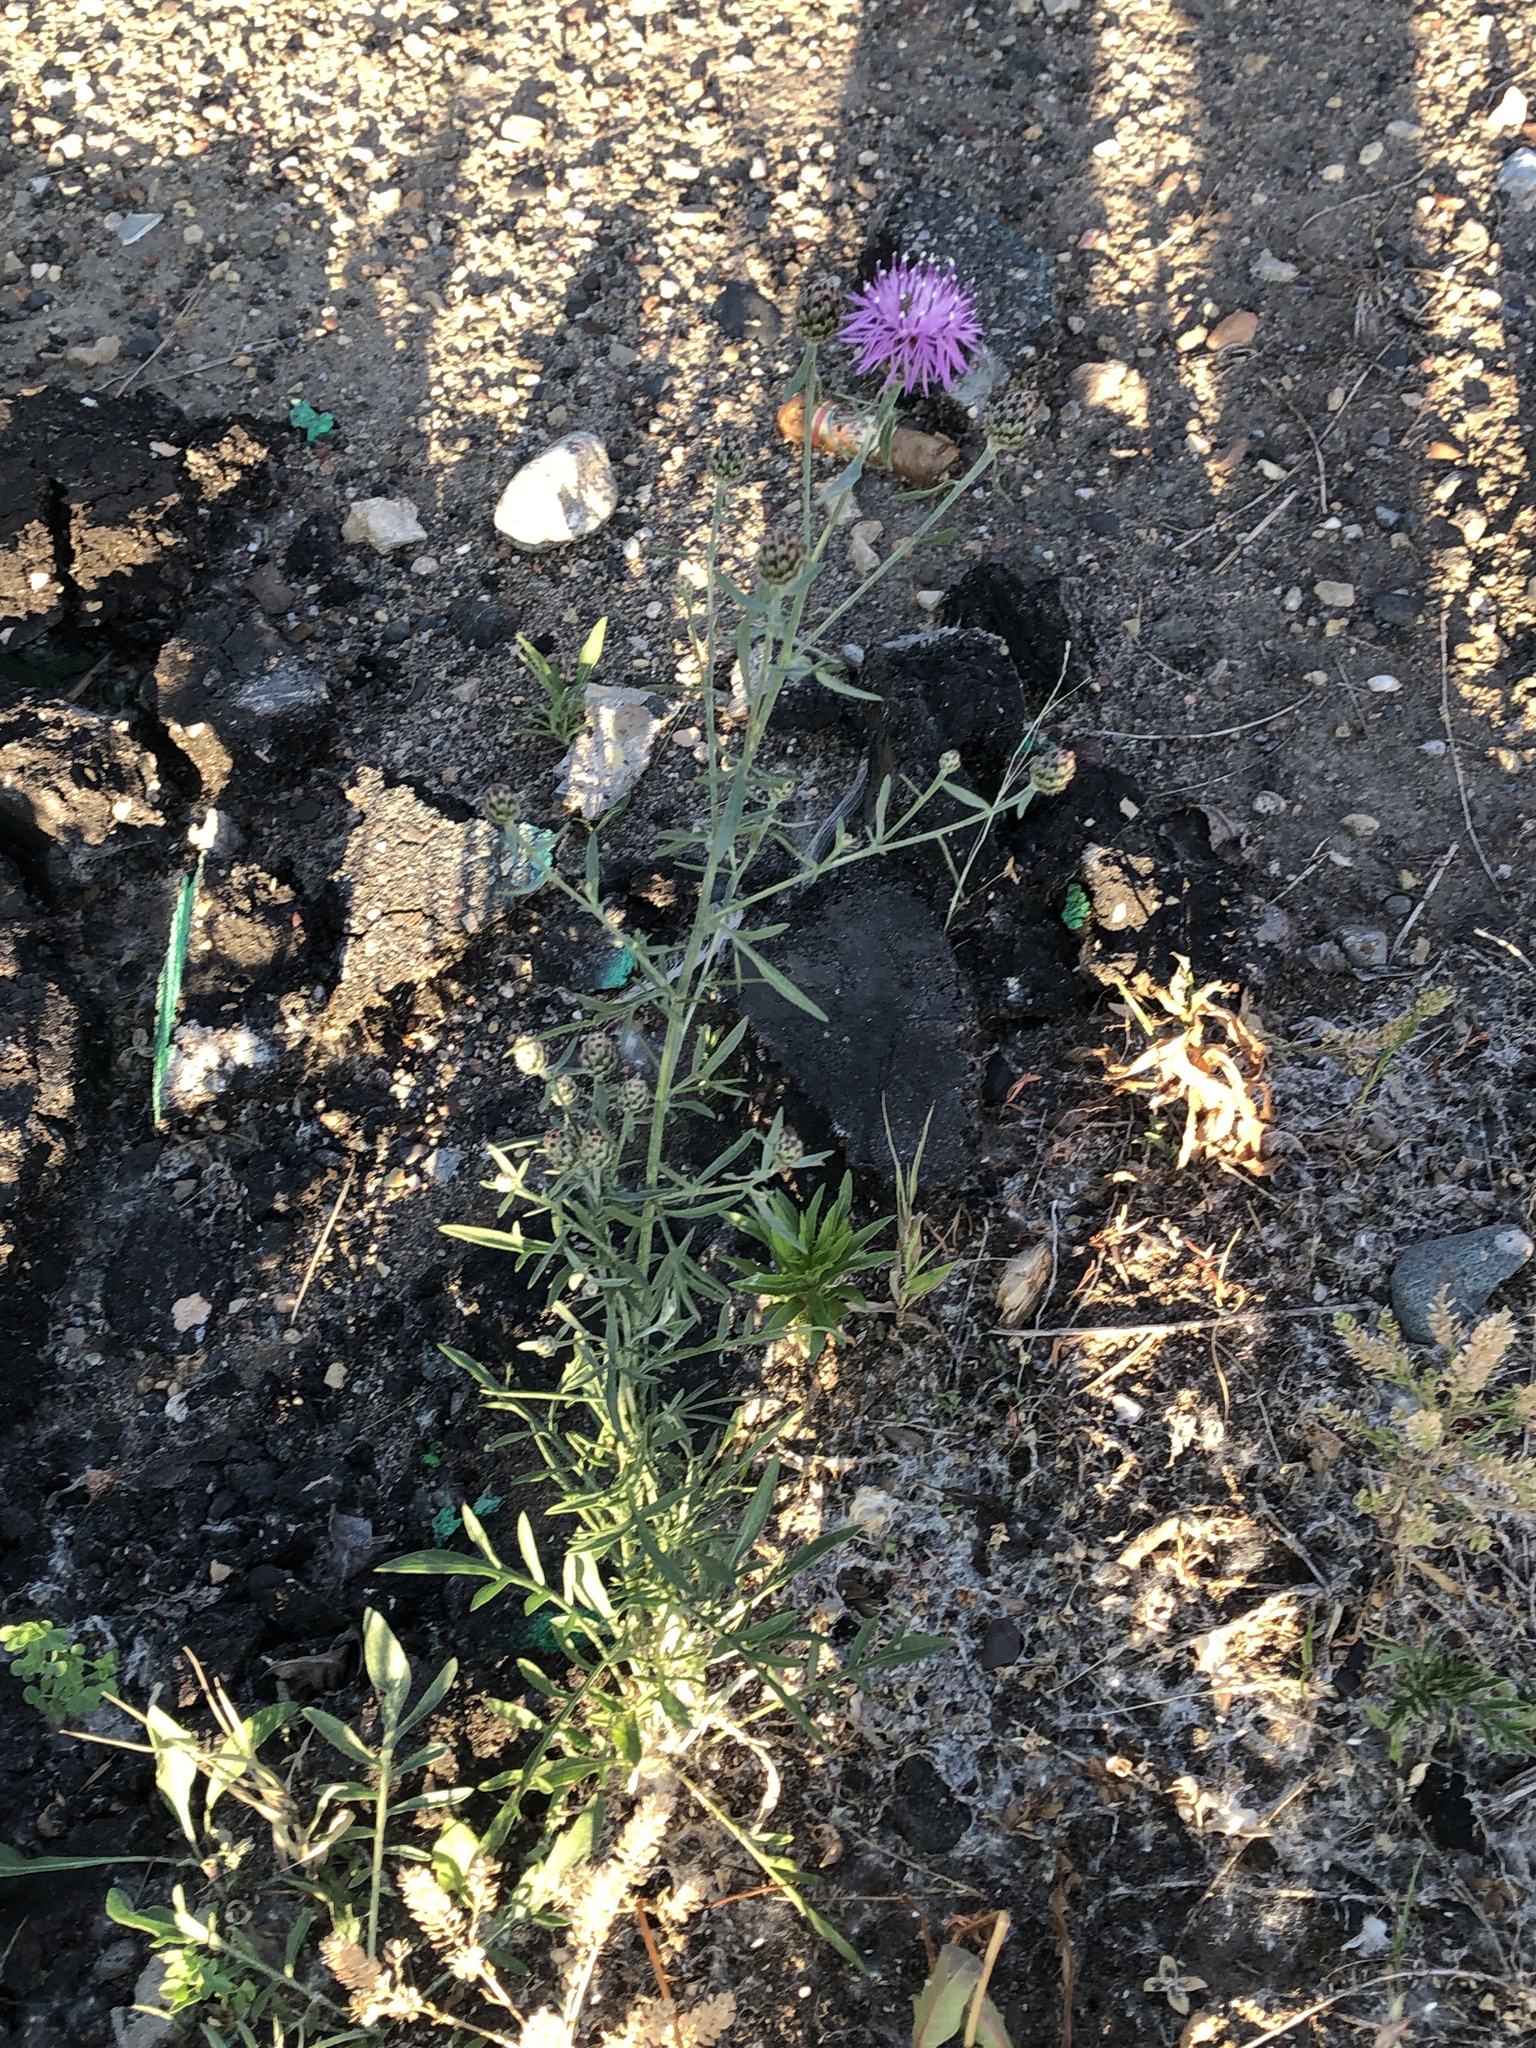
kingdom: Plantae
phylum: Tracheophyta
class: Magnoliopsida
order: Asterales
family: Asteraceae
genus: Centaurea
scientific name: Centaurea stoebe
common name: Spotted knapweed
